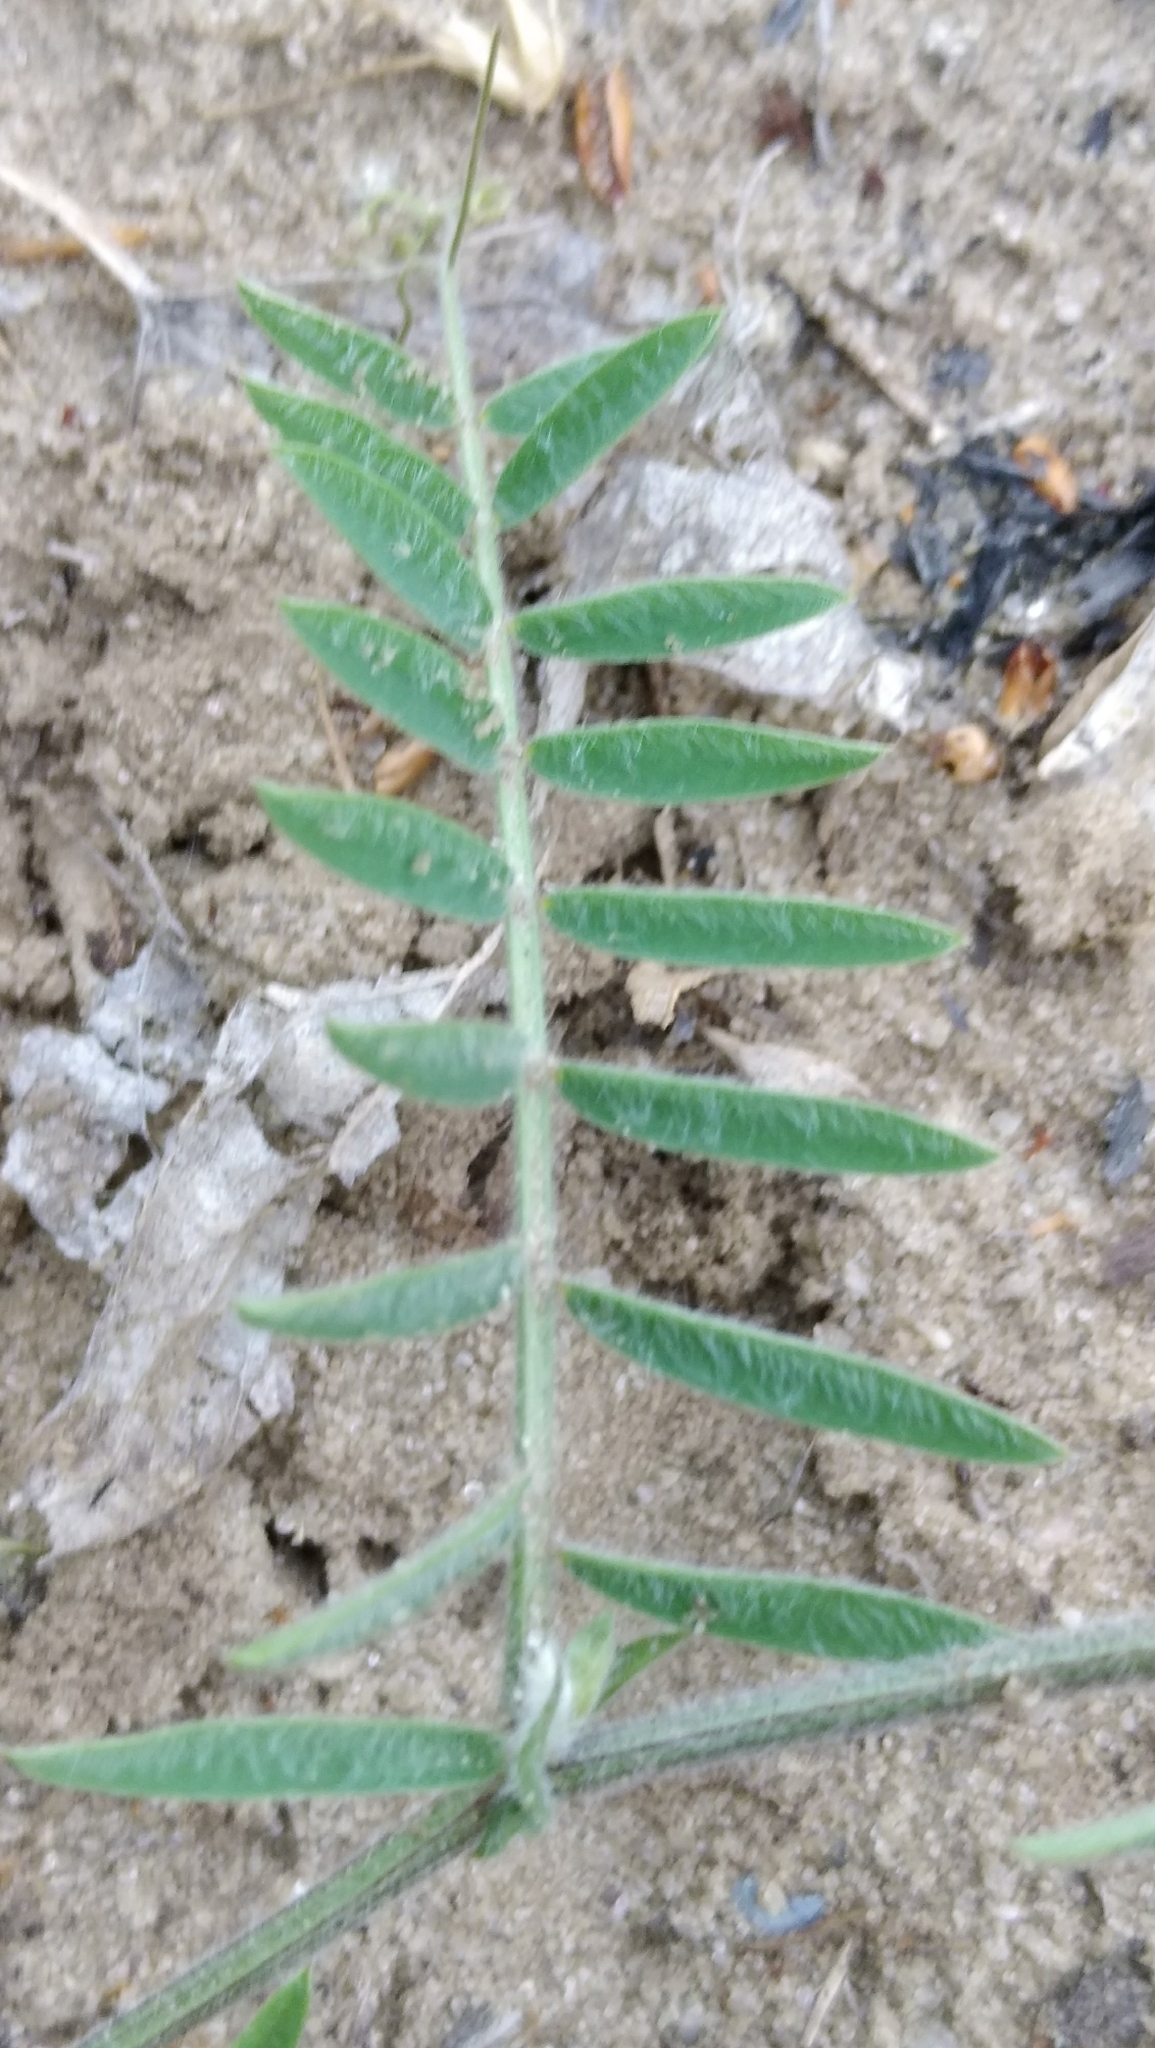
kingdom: Plantae
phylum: Tracheophyta
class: Magnoliopsida
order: Fabales
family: Fabaceae
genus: Vicia
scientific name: Vicia villosa
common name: Fodder vetch
